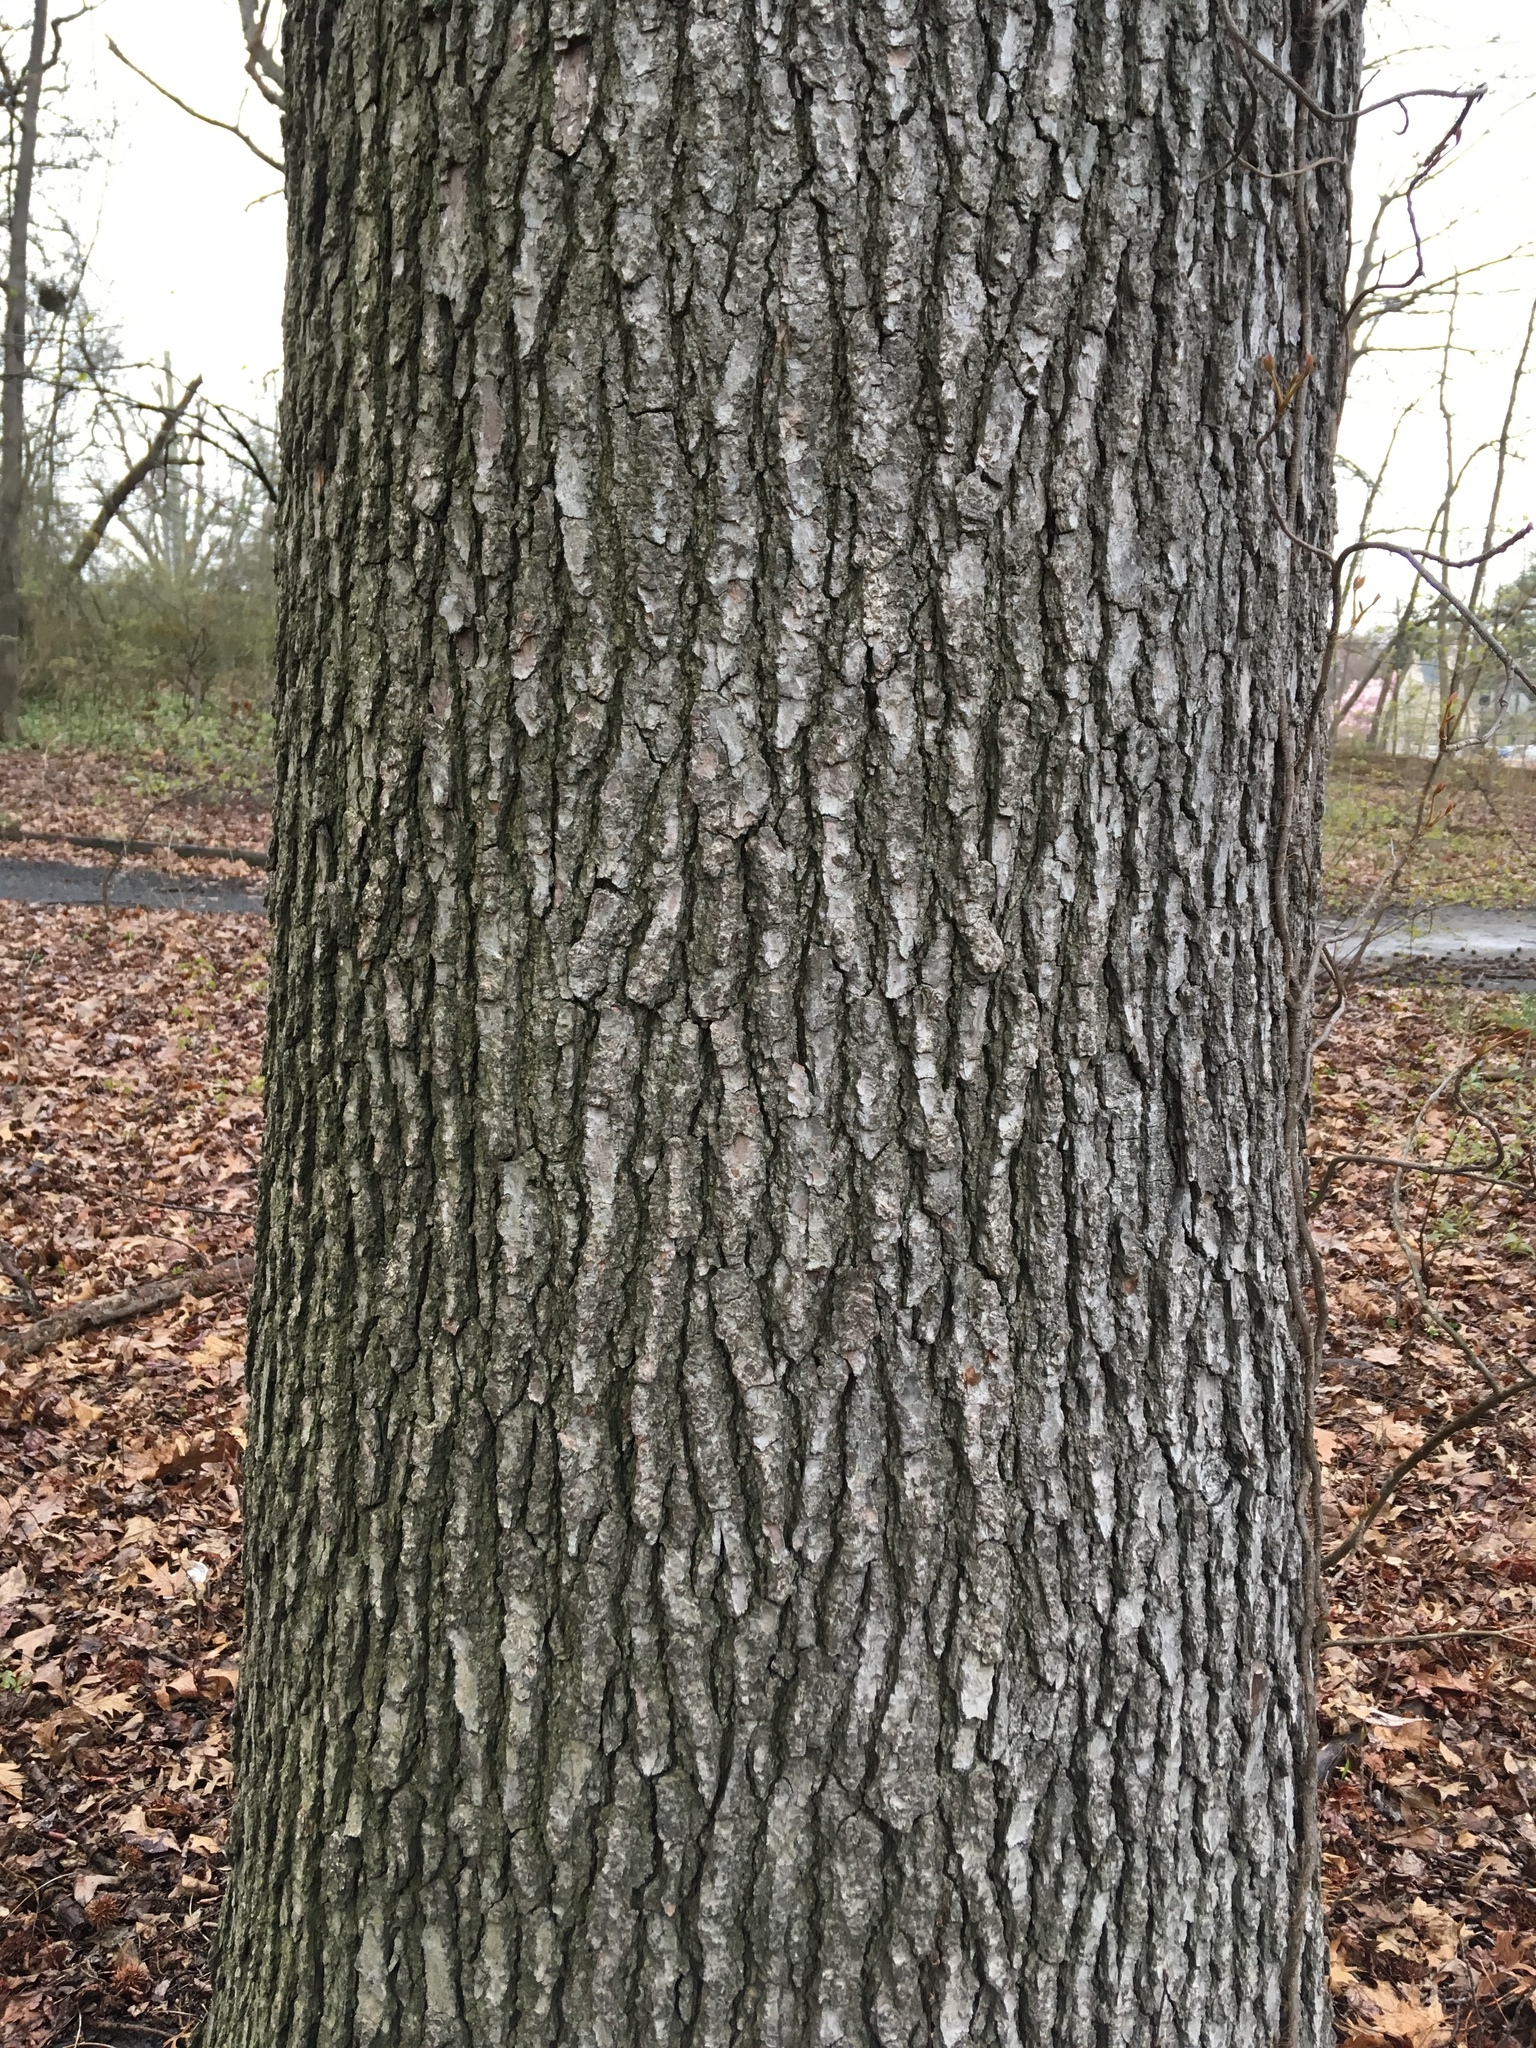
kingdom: Plantae
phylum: Tracheophyta
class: Magnoliopsida
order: Saxifragales
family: Altingiaceae
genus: Liquidambar
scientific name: Liquidambar styraciflua
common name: Sweet gum
